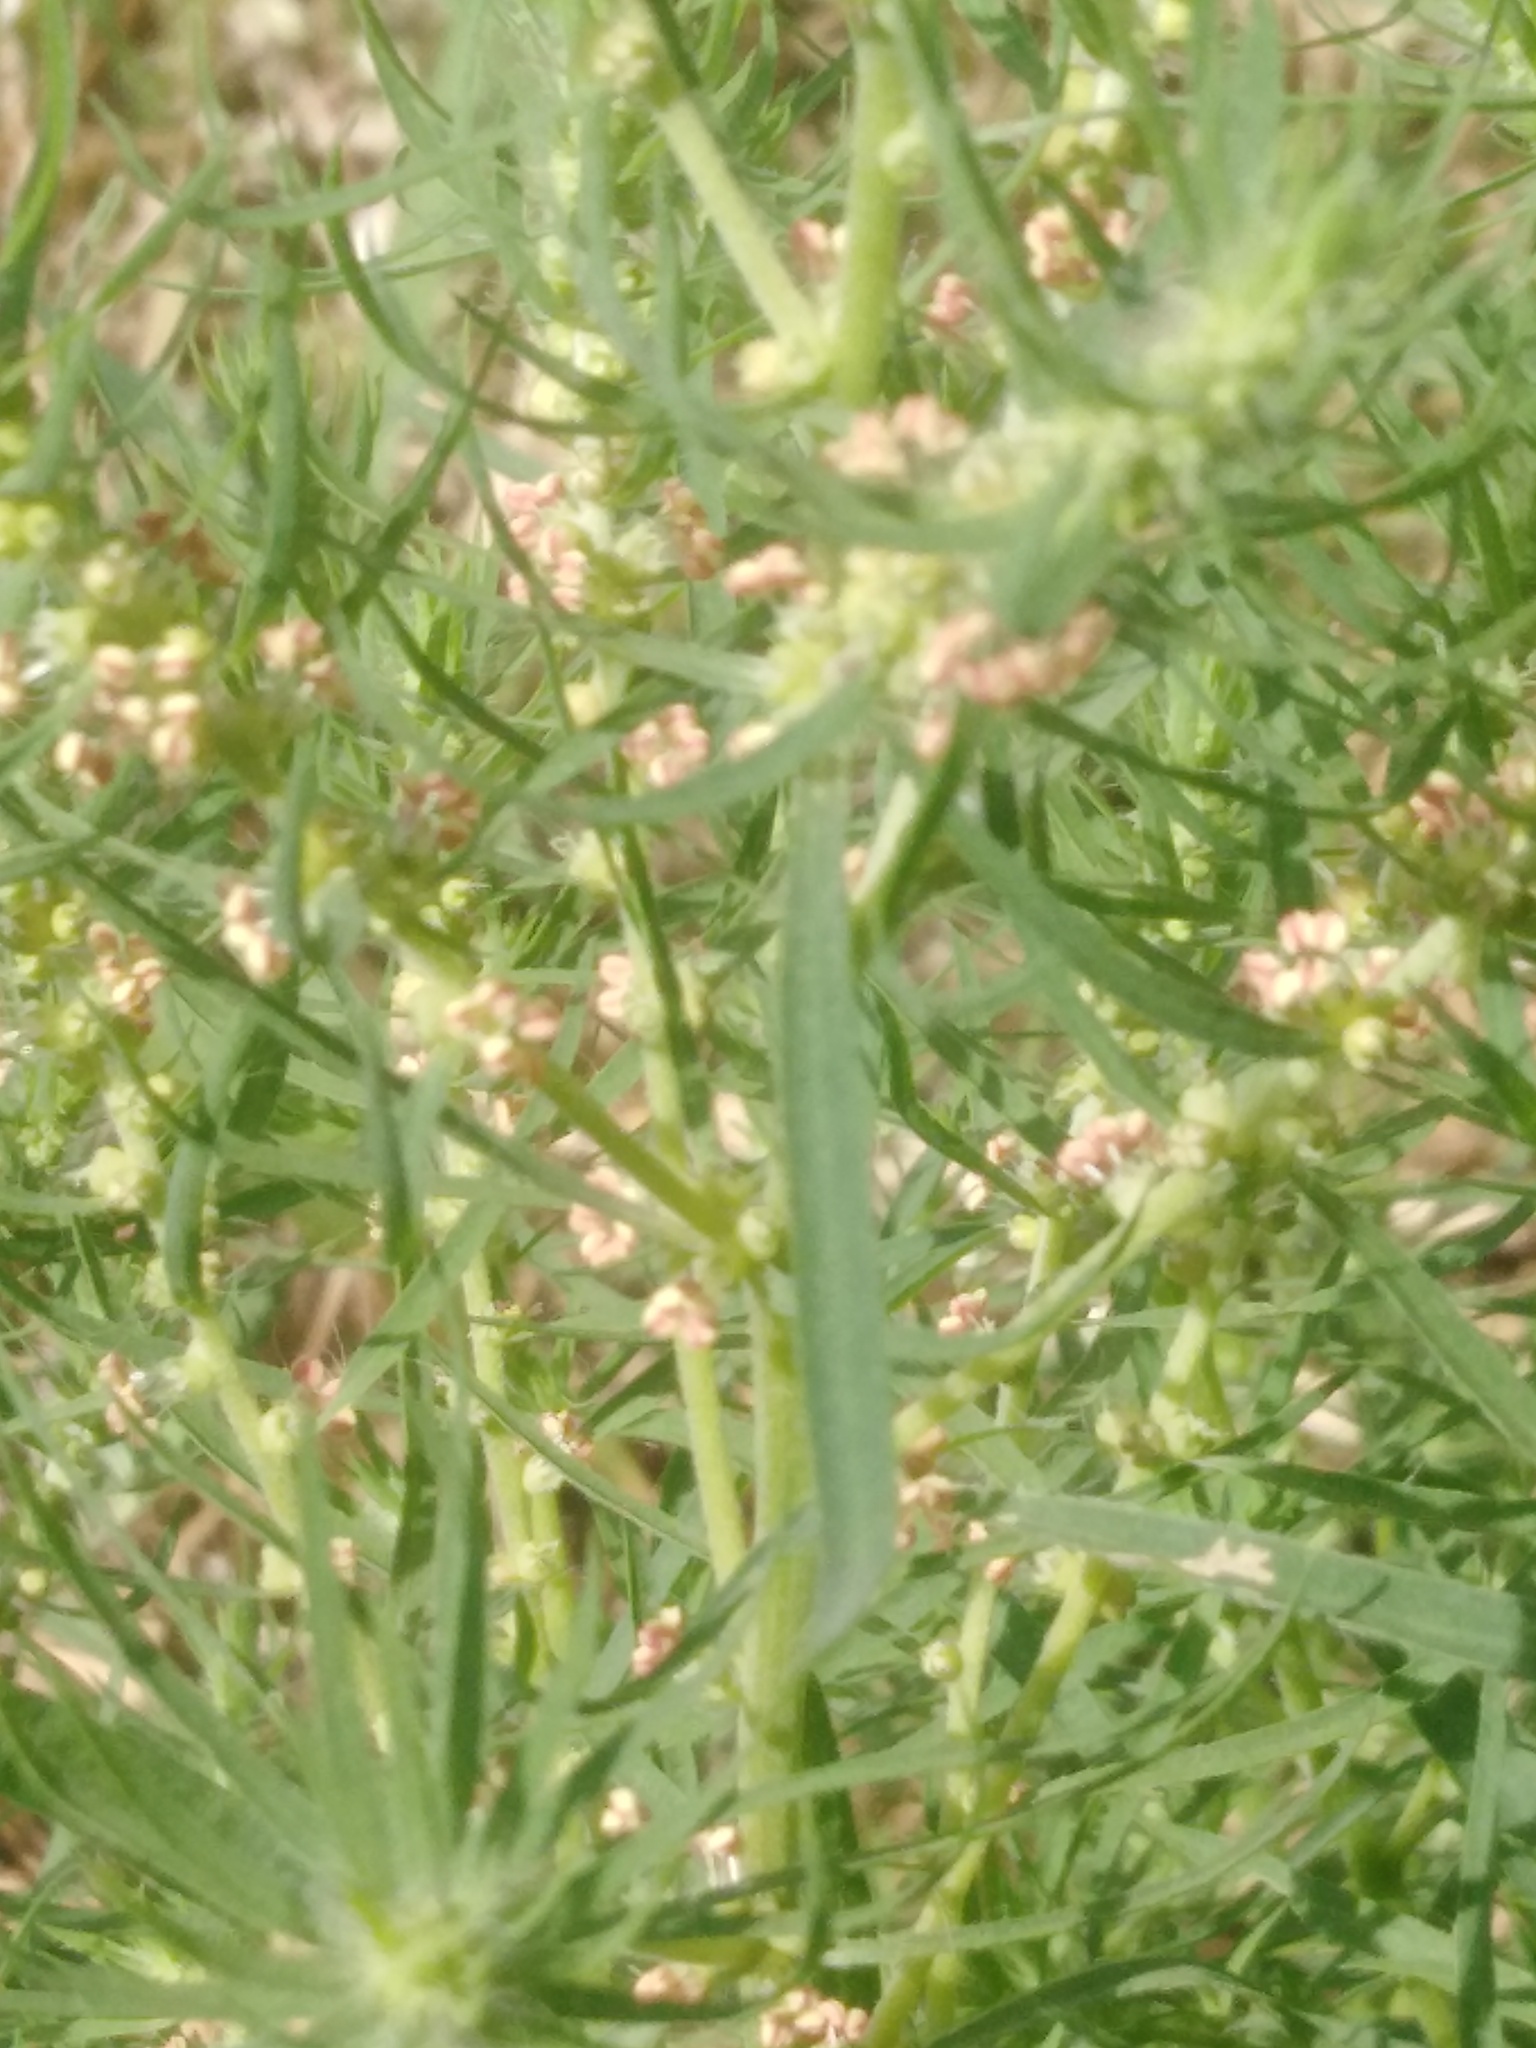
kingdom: Plantae
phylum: Tracheophyta
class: Magnoliopsida
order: Caryophyllales
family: Amaranthaceae
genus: Bassia
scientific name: Bassia scoparia
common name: Belvedere
